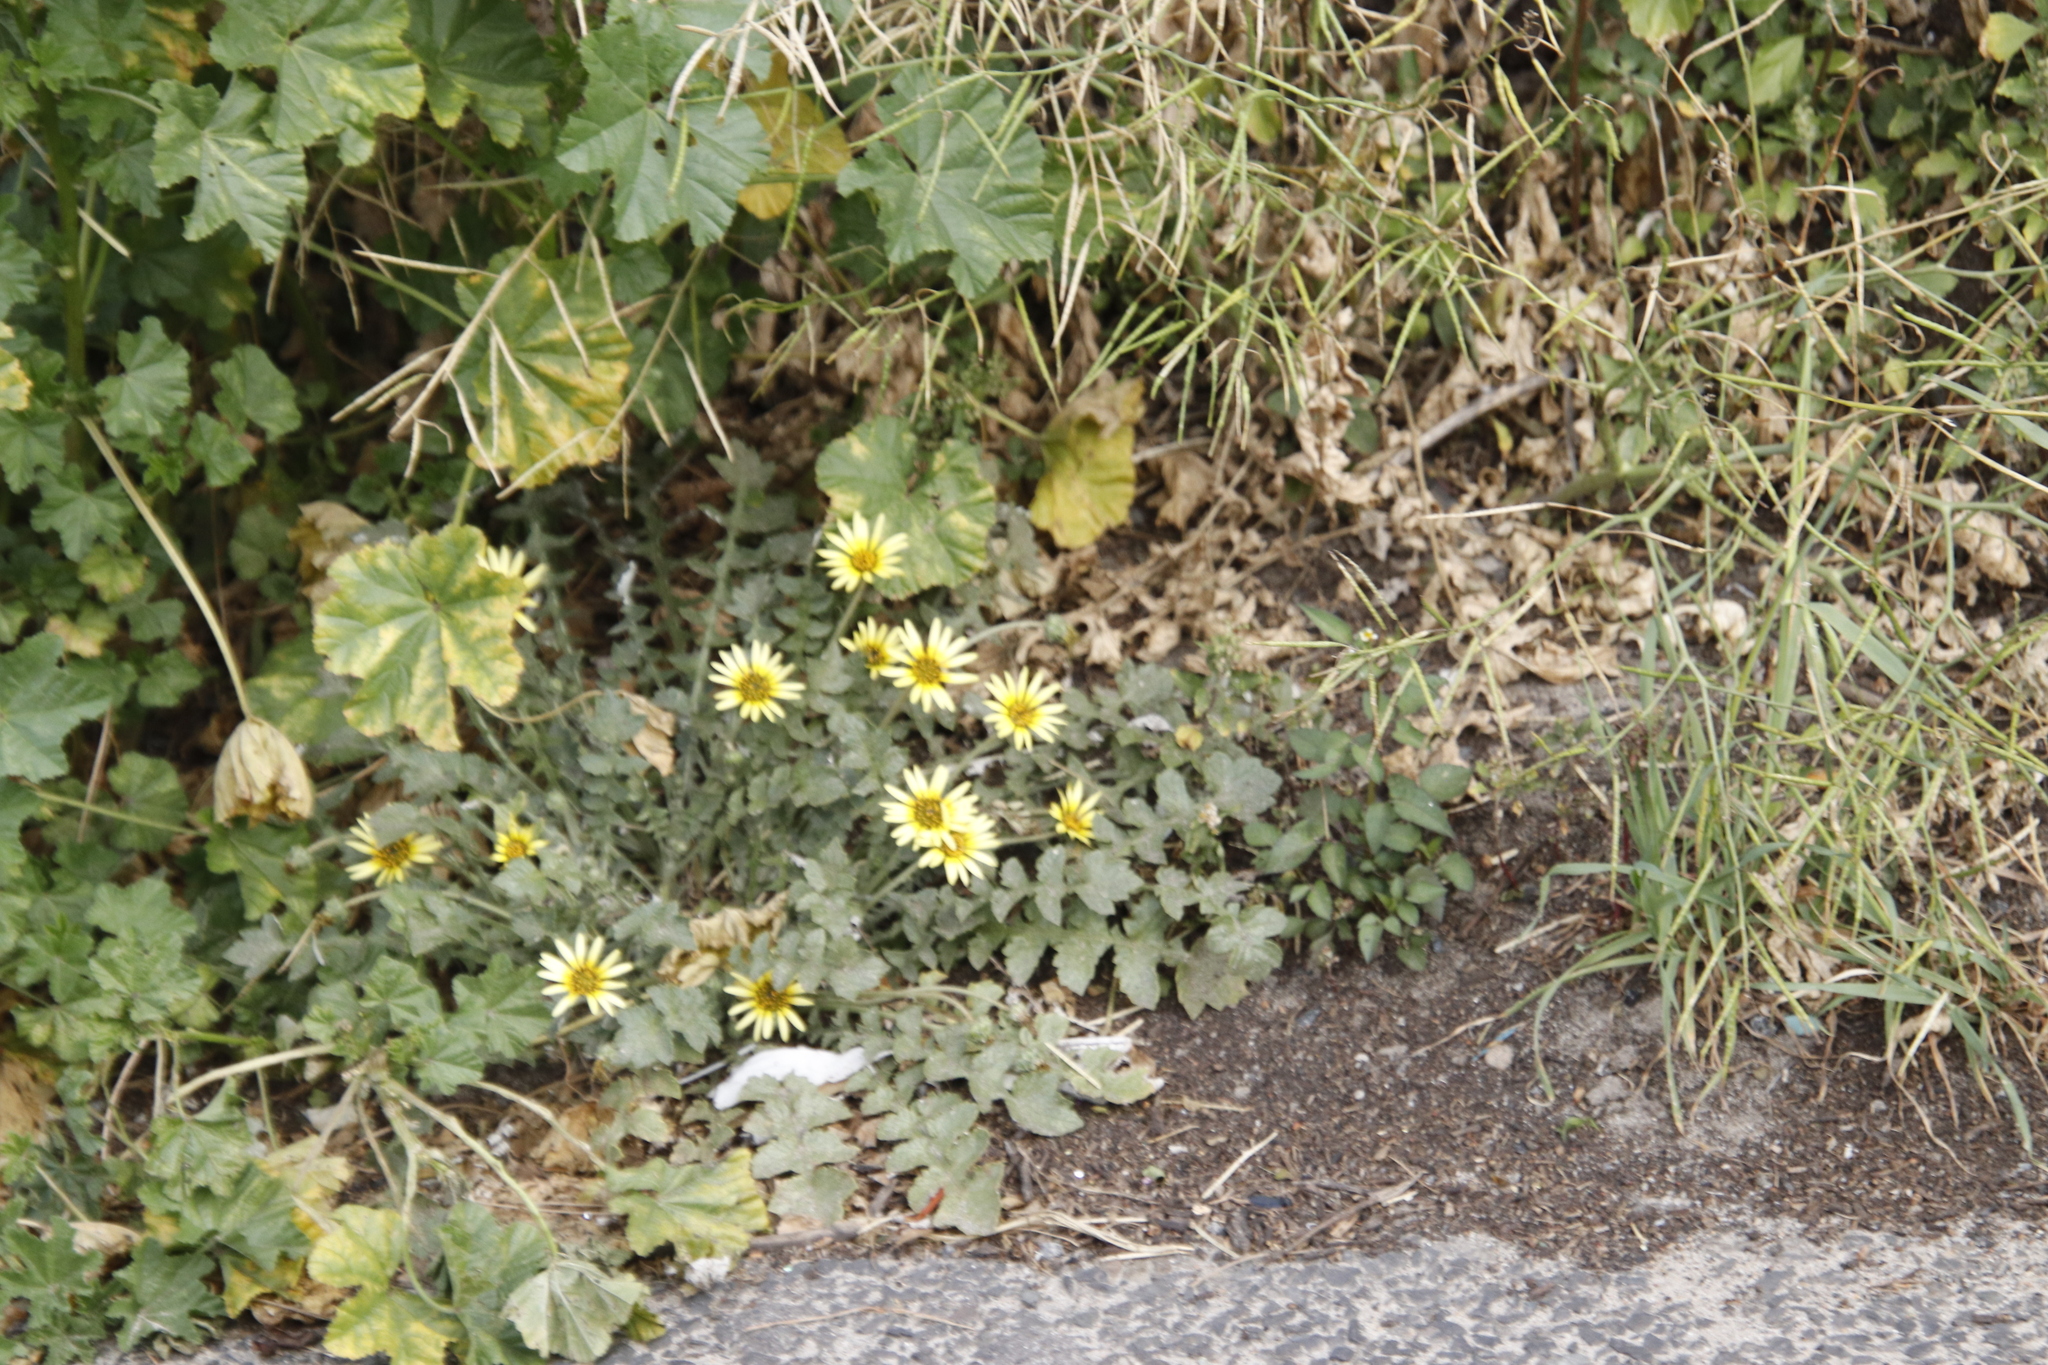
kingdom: Plantae
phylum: Tracheophyta
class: Magnoliopsida
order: Asterales
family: Asteraceae
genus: Arctotheca
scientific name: Arctotheca calendula
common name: Capeweed
